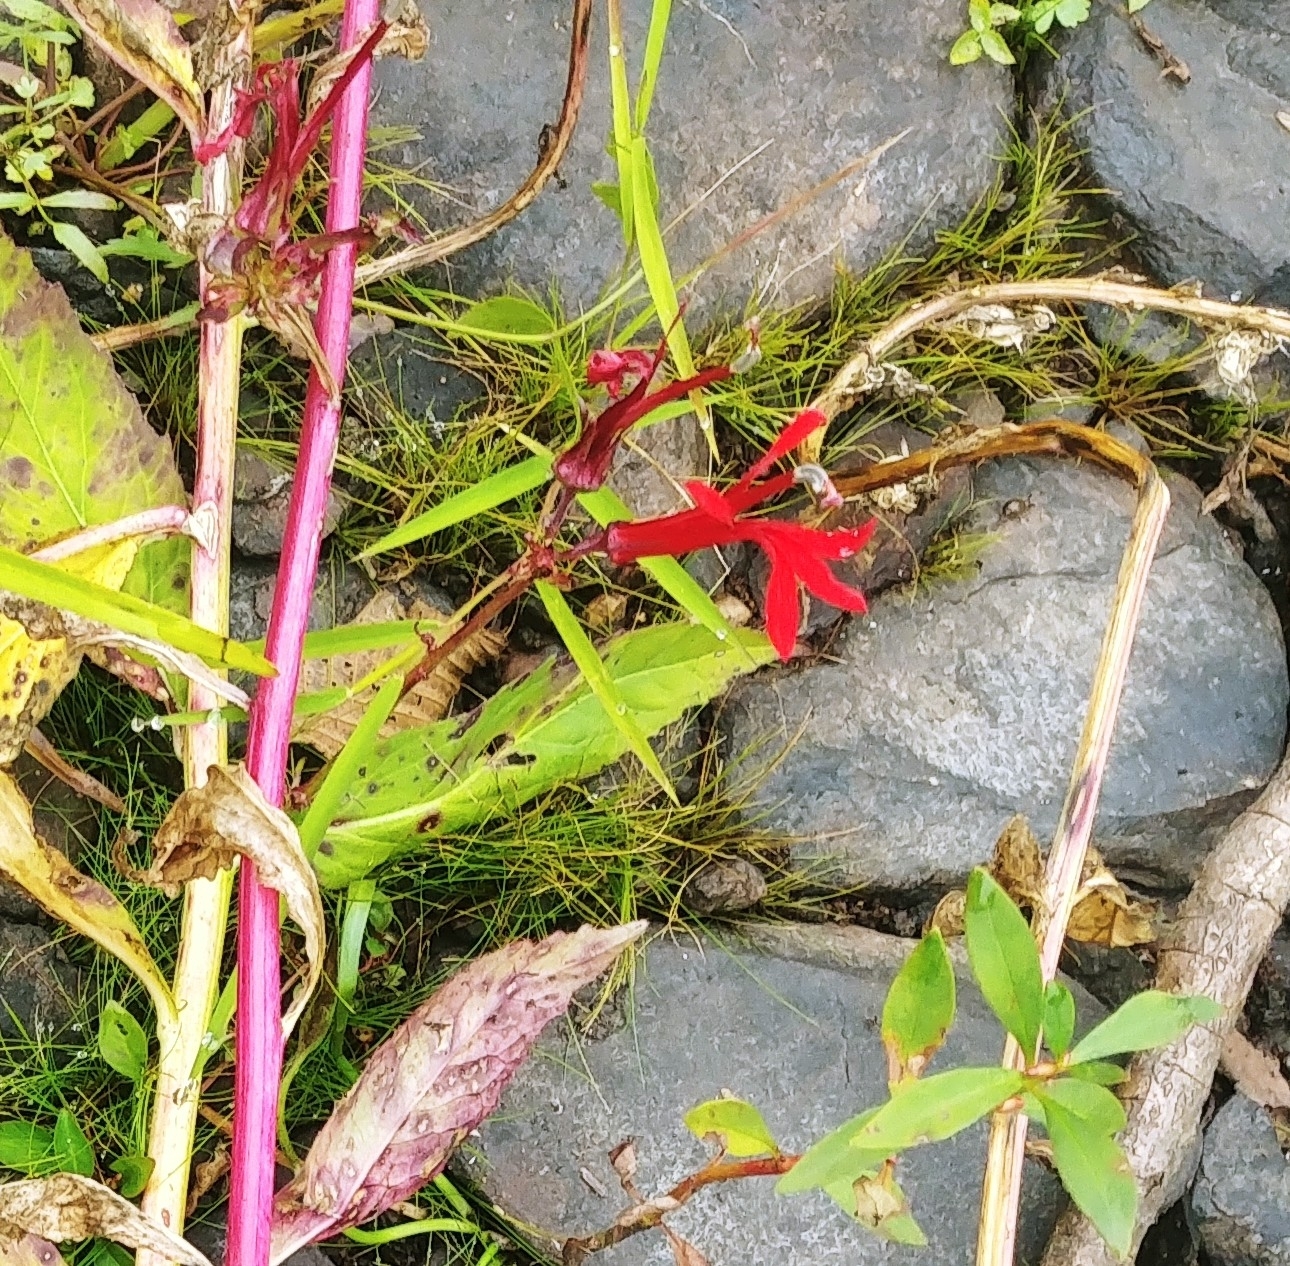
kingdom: Plantae
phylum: Tracheophyta
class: Magnoliopsida
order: Asterales
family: Campanulaceae
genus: Lobelia
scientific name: Lobelia cardinalis
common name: Cardinal flower
